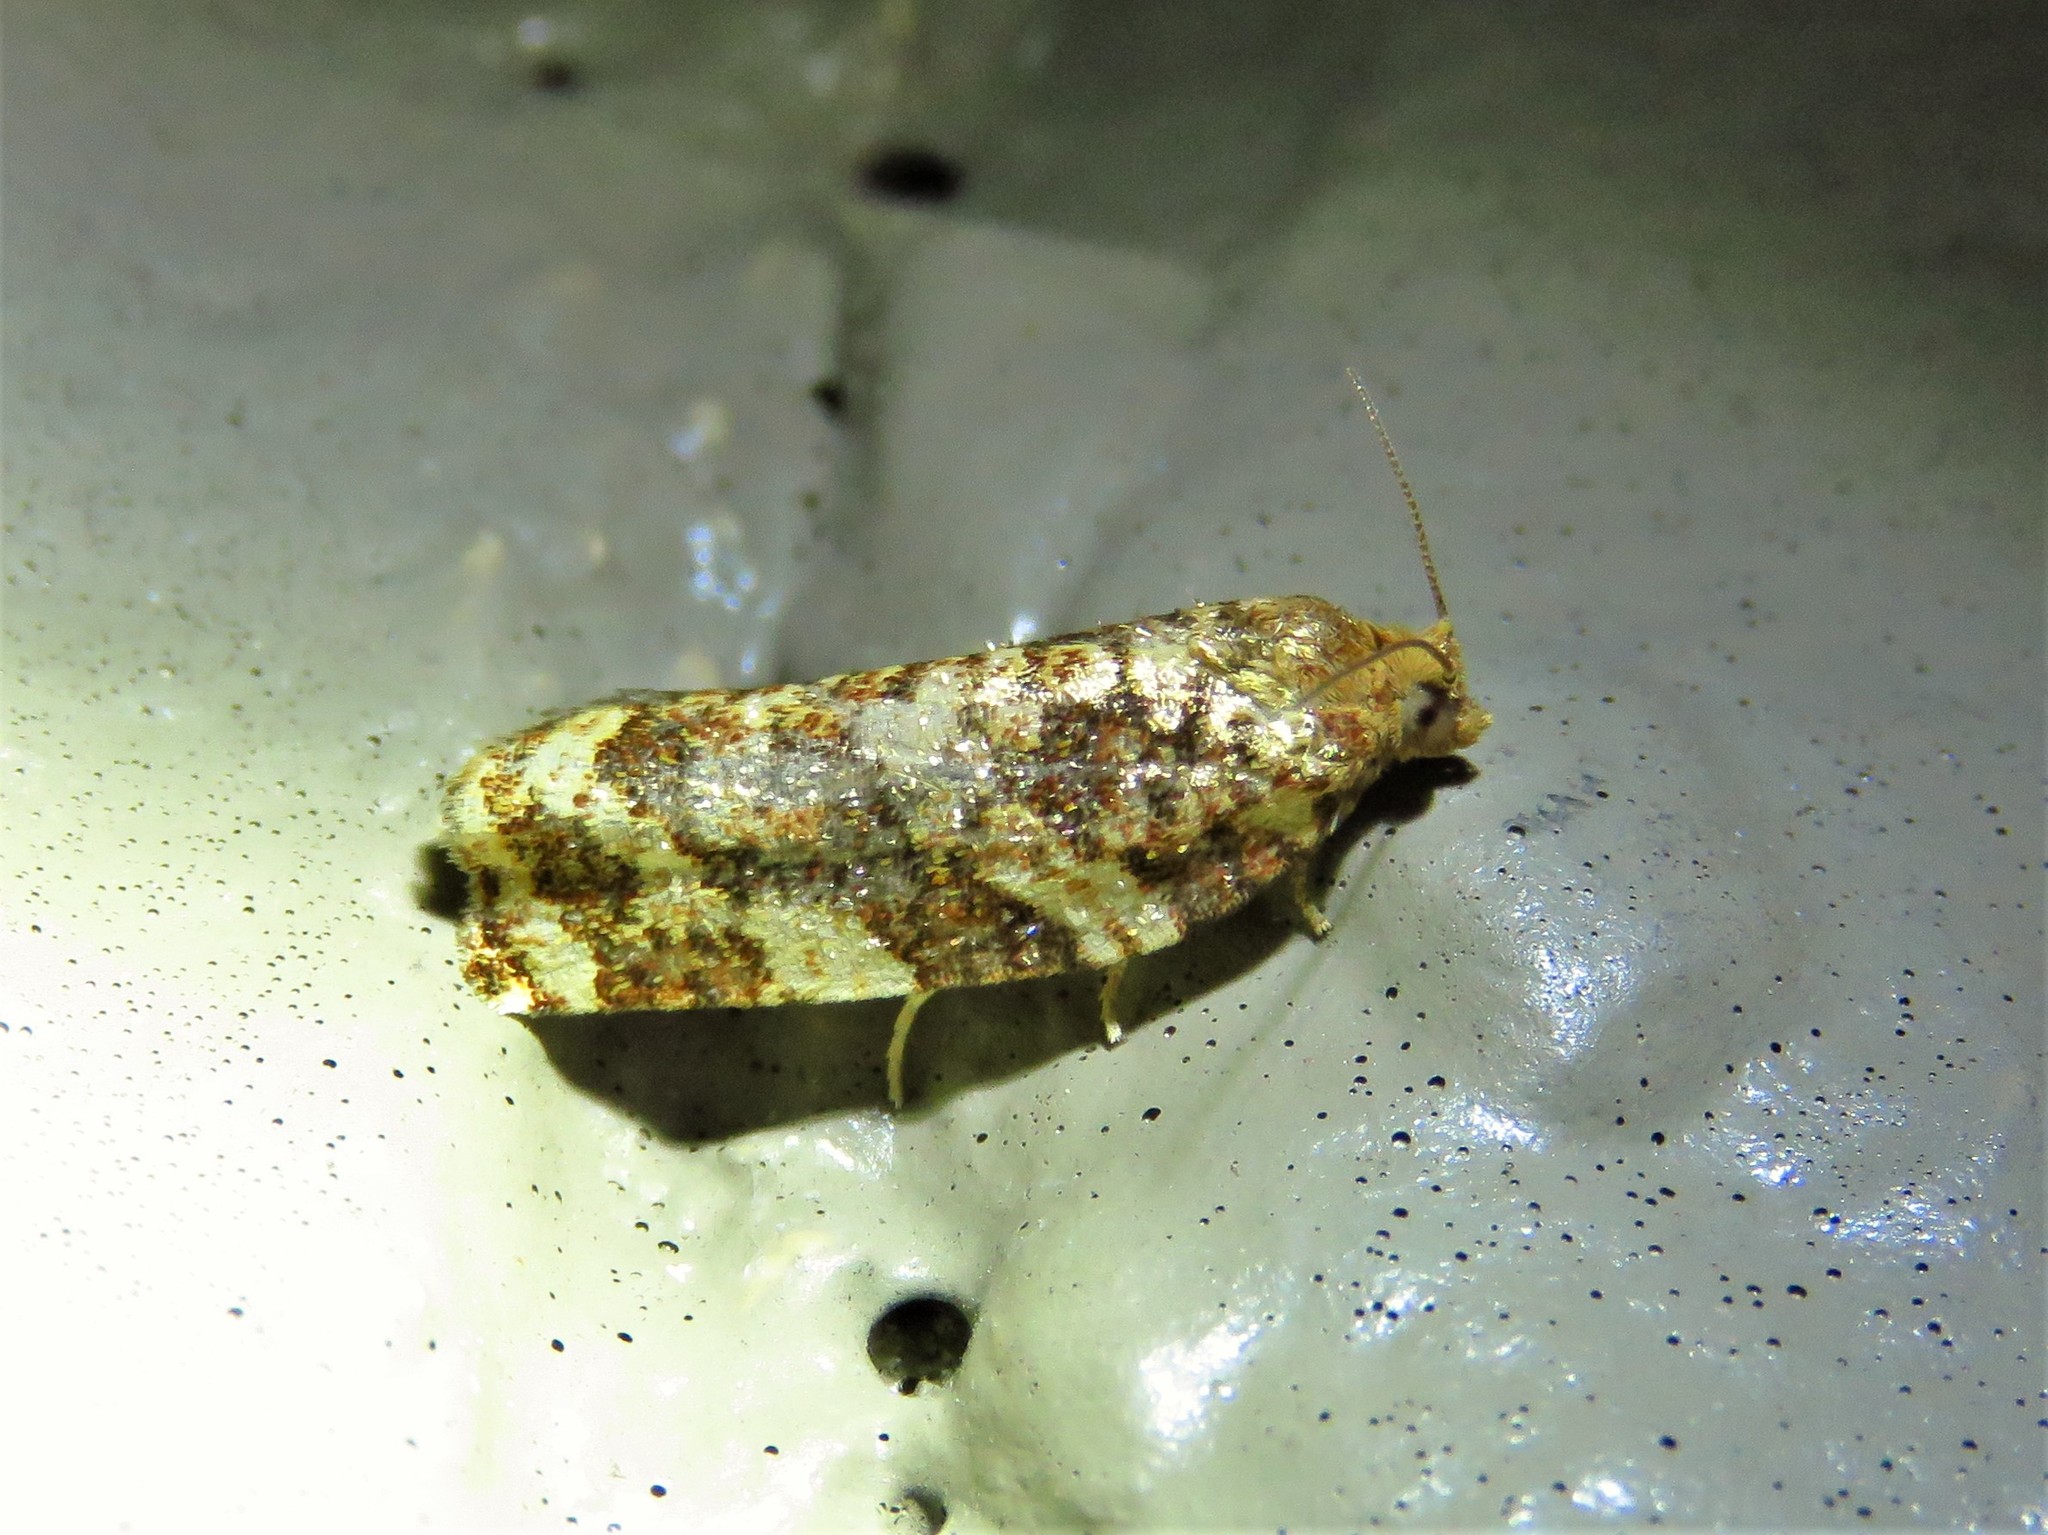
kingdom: Animalia
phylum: Arthropoda
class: Insecta
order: Lepidoptera
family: Tortricidae
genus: Archips
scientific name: Archips argyrospila
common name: Fruit-tree leafroller moth
